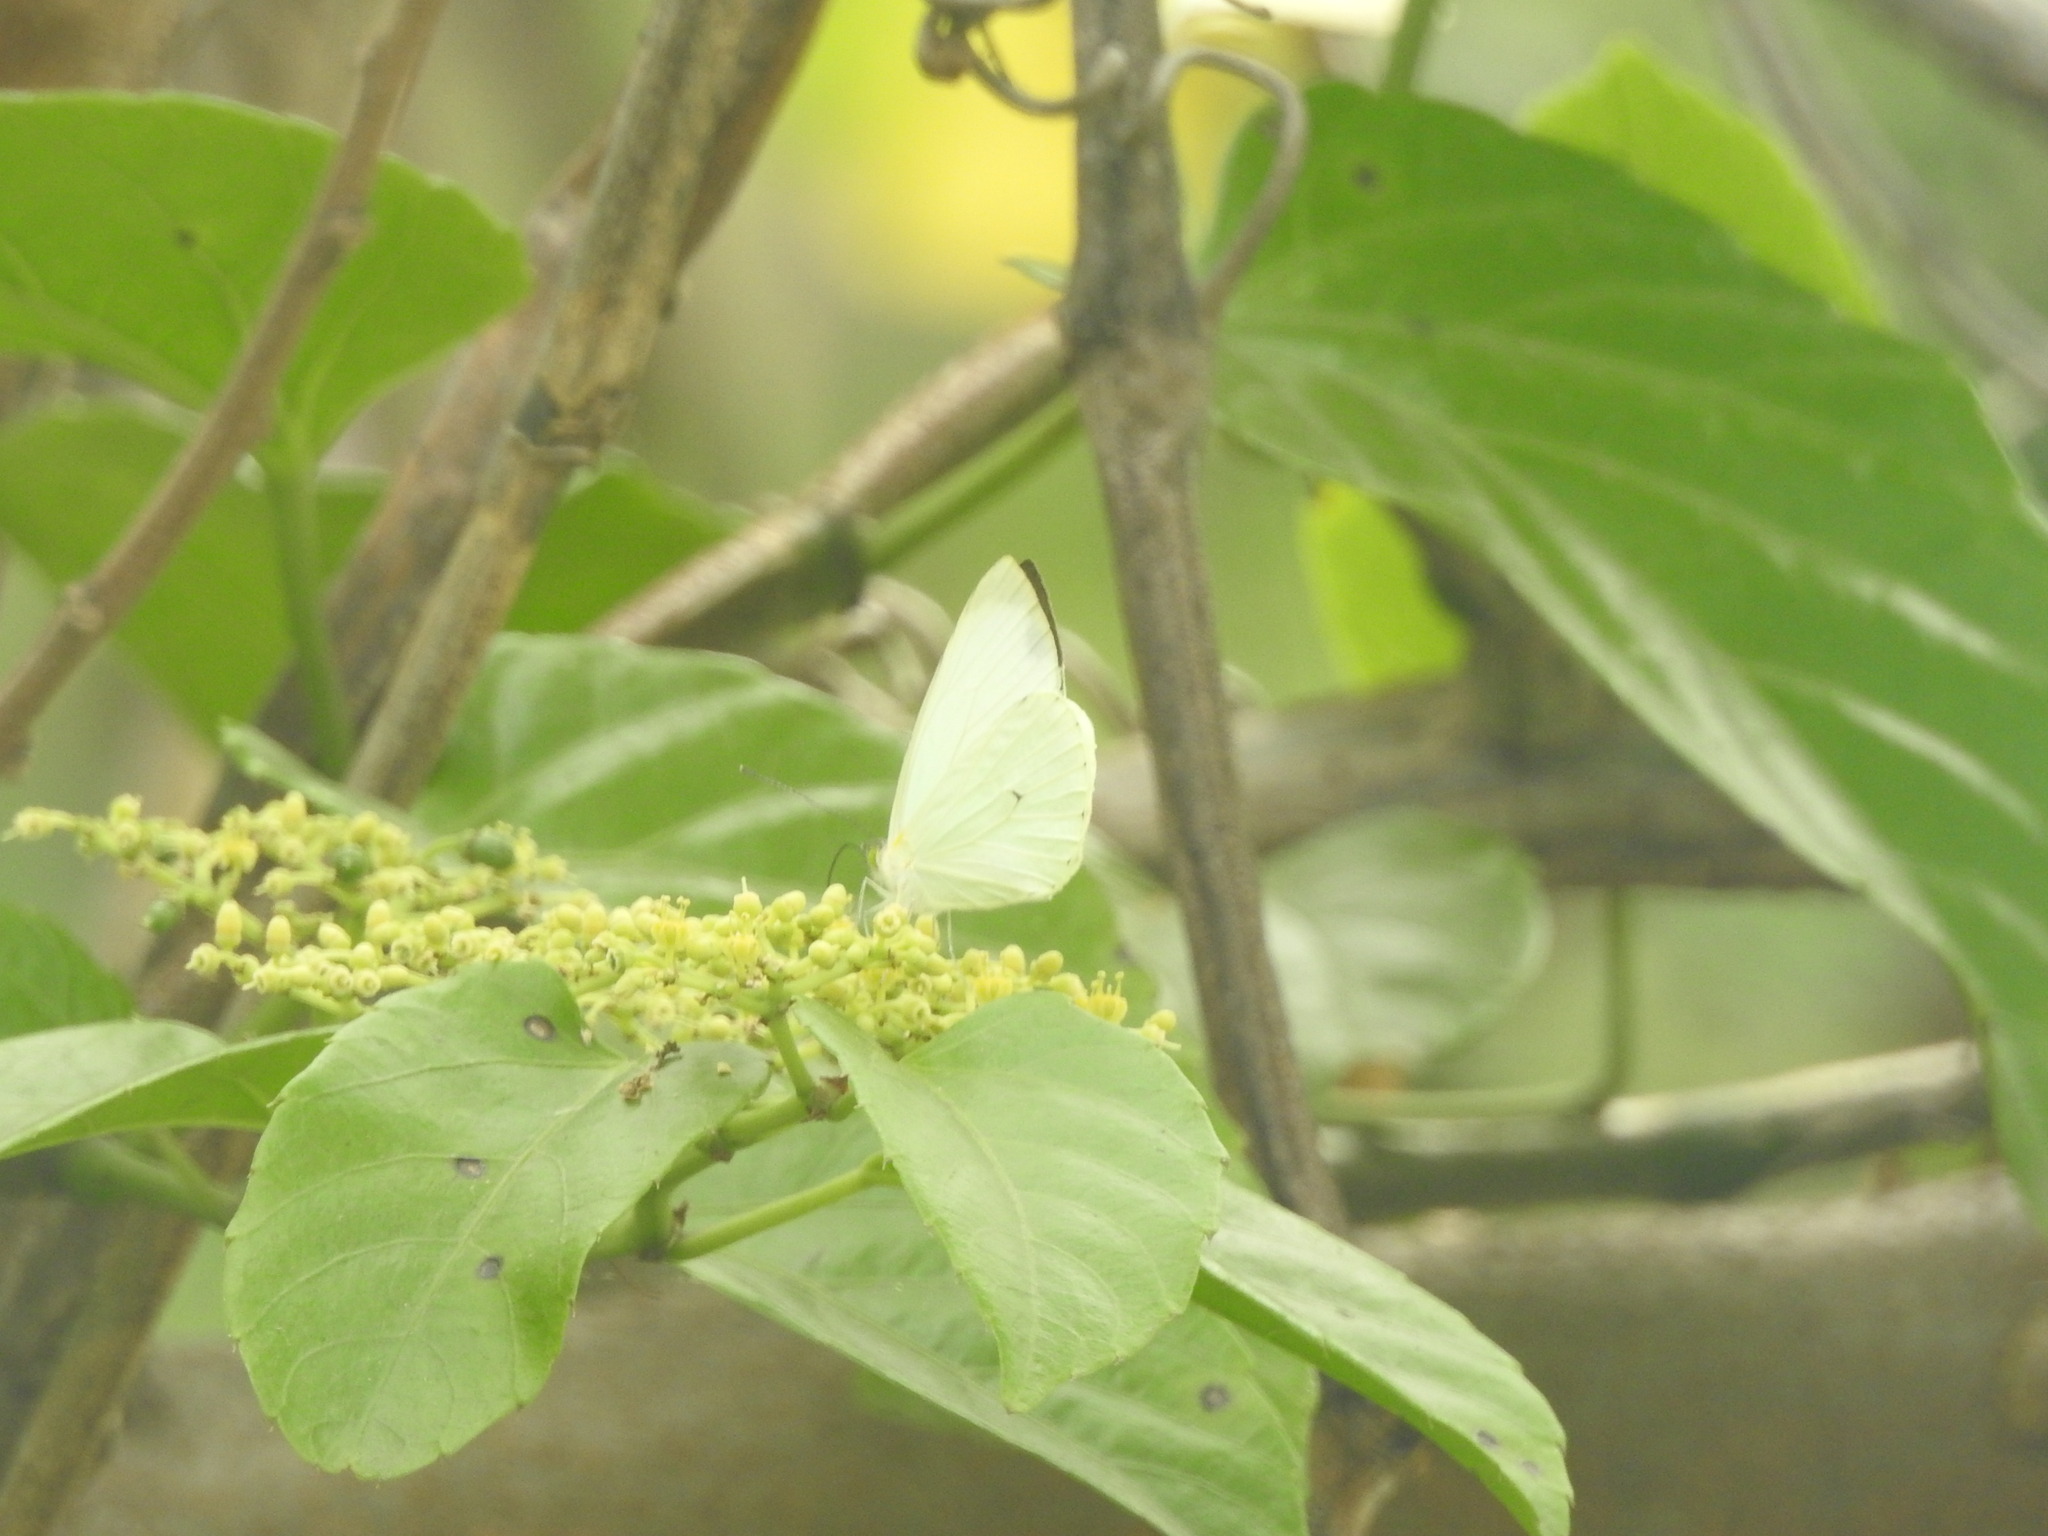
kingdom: Animalia
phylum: Arthropoda
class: Insecta
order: Lepidoptera
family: Pieridae
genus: Leptophobia
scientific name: Leptophobia aripa
